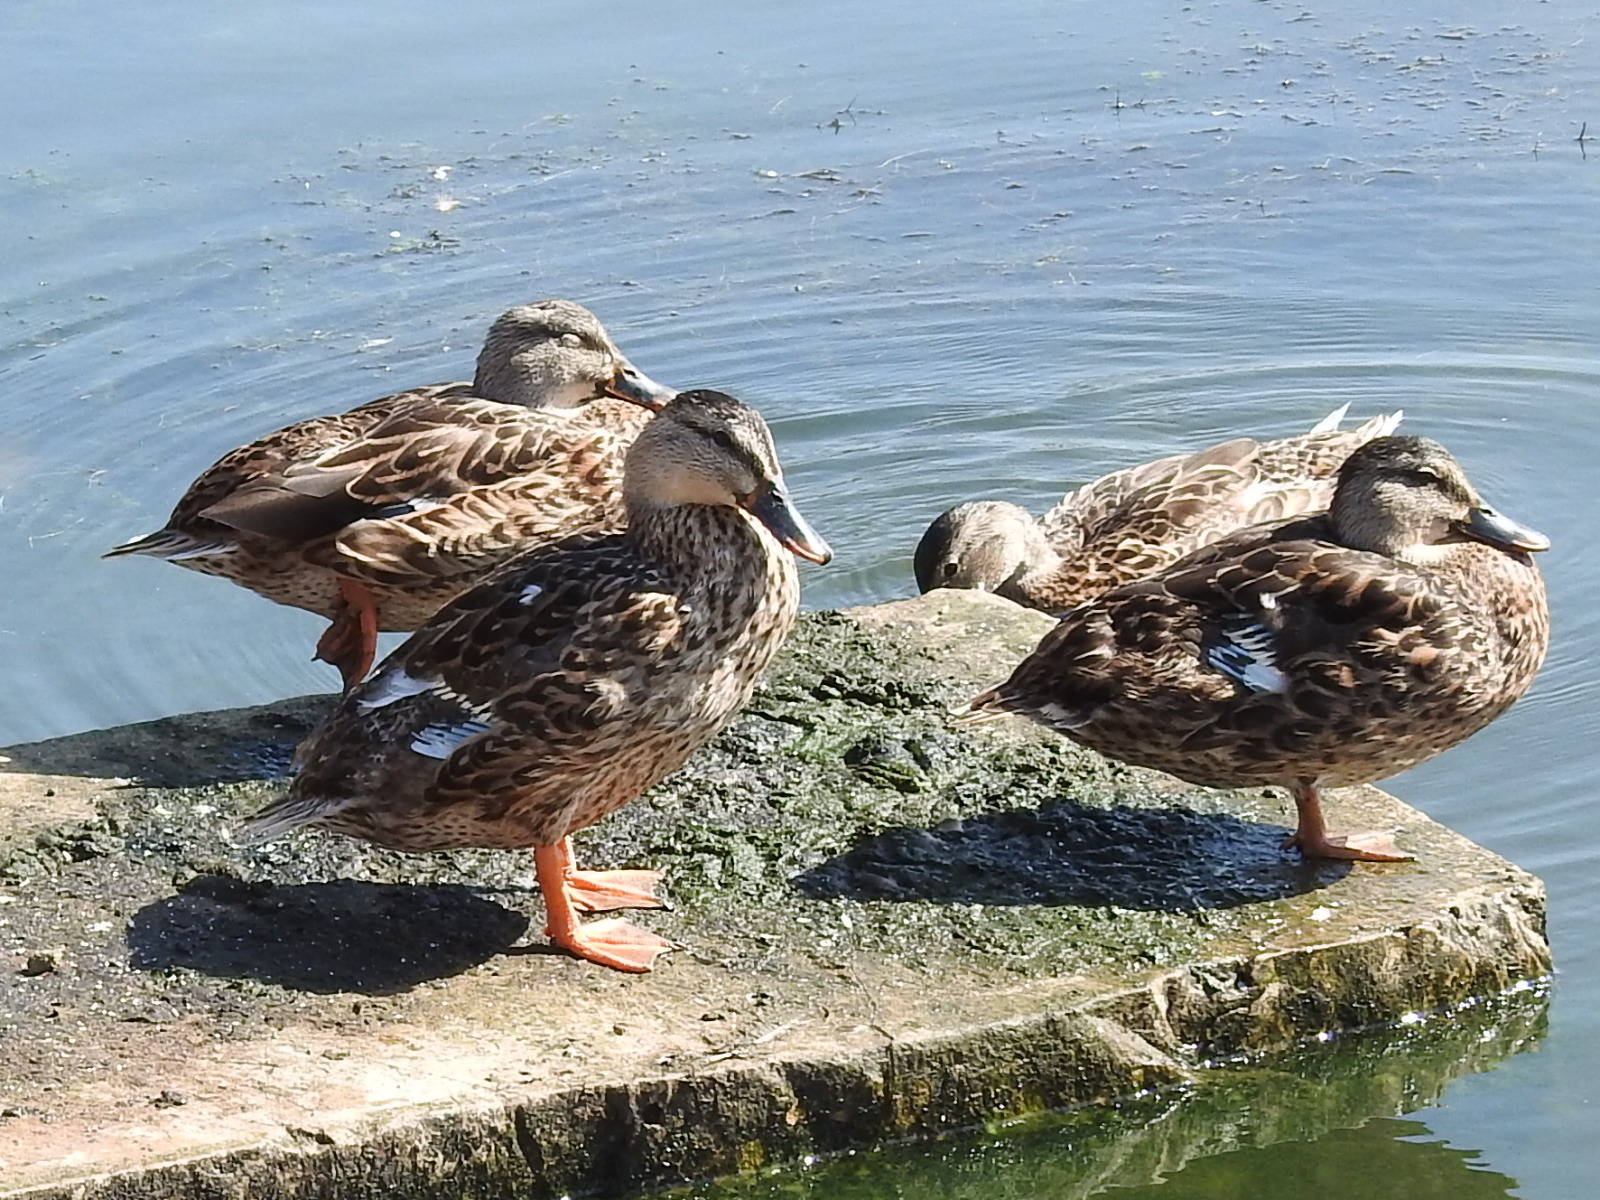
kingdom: Animalia
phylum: Chordata
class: Aves
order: Anseriformes
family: Anatidae
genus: Anas
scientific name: Anas platyrhynchos
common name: Mallard
